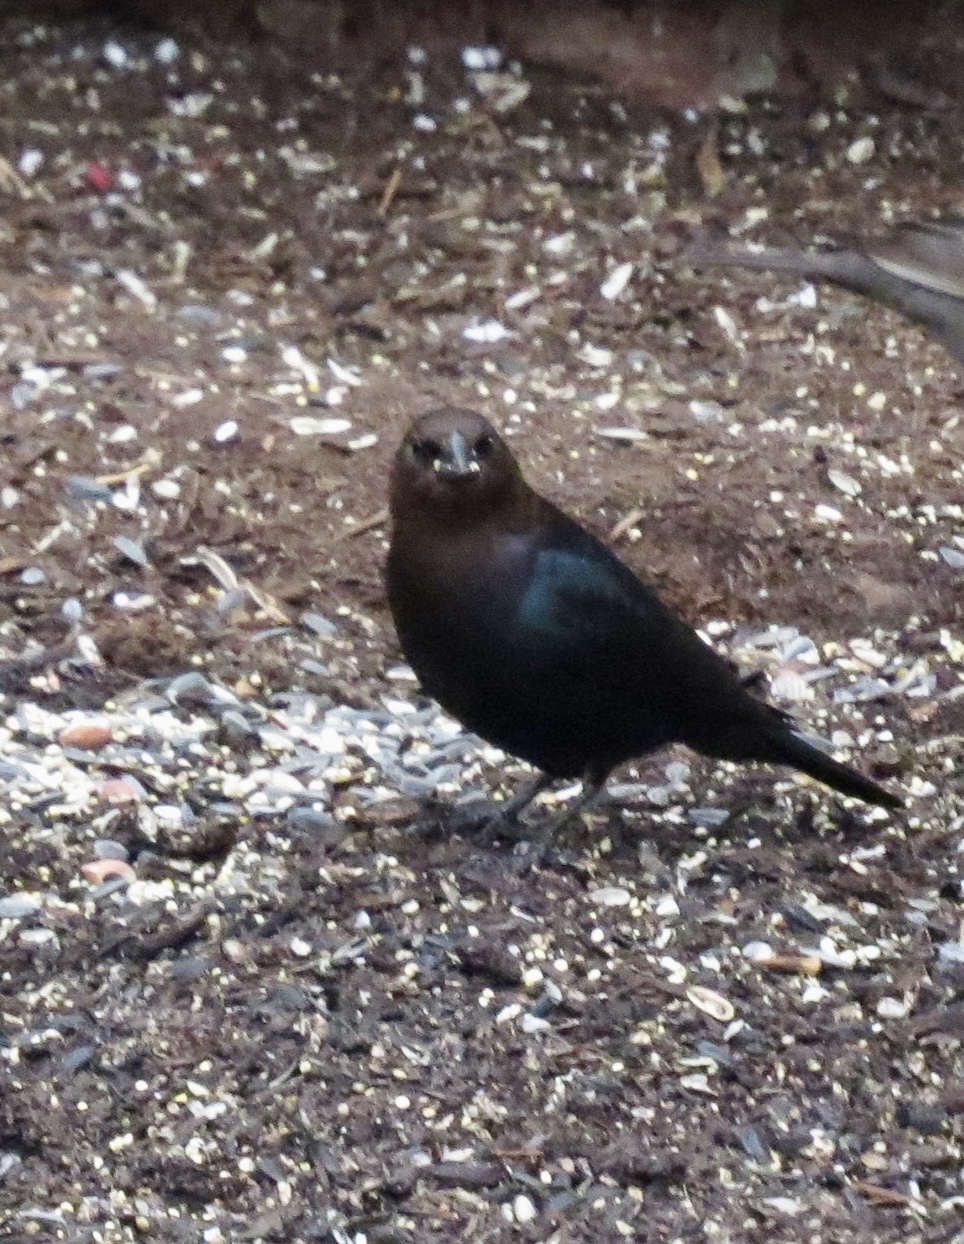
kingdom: Animalia
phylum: Chordata
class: Aves
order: Passeriformes
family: Icteridae
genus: Molothrus
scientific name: Molothrus ater
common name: Brown-headed cowbird
